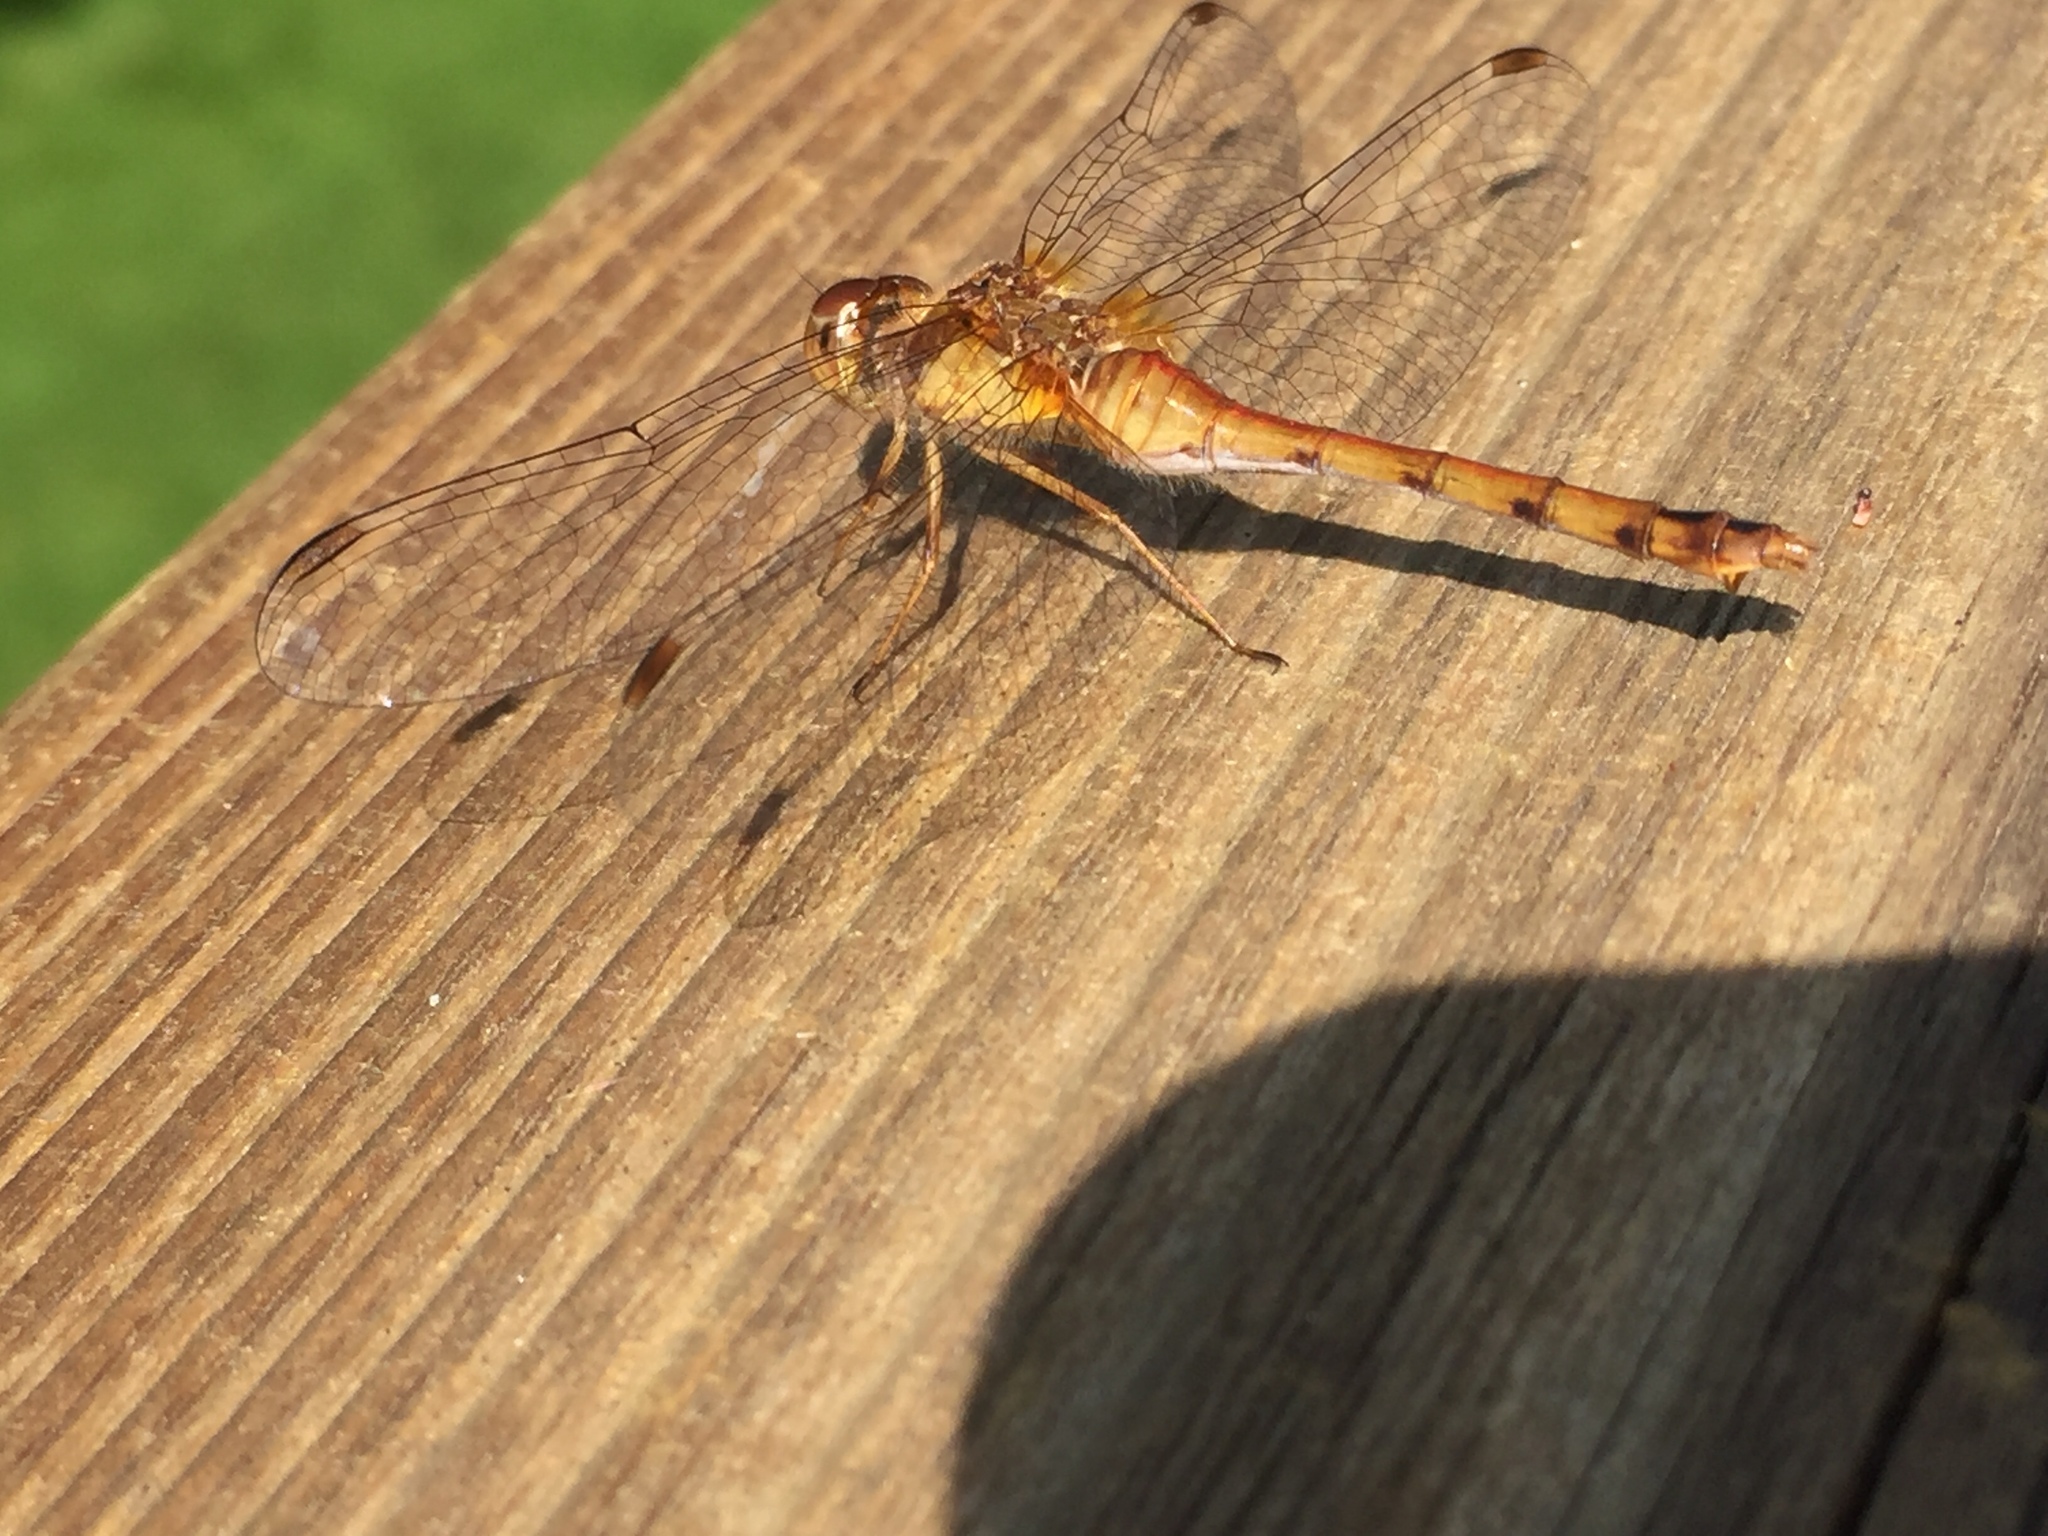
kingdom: Animalia
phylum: Arthropoda
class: Insecta
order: Odonata
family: Libellulidae
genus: Sympetrum
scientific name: Sympetrum vicinum
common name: Autumn meadowhawk
